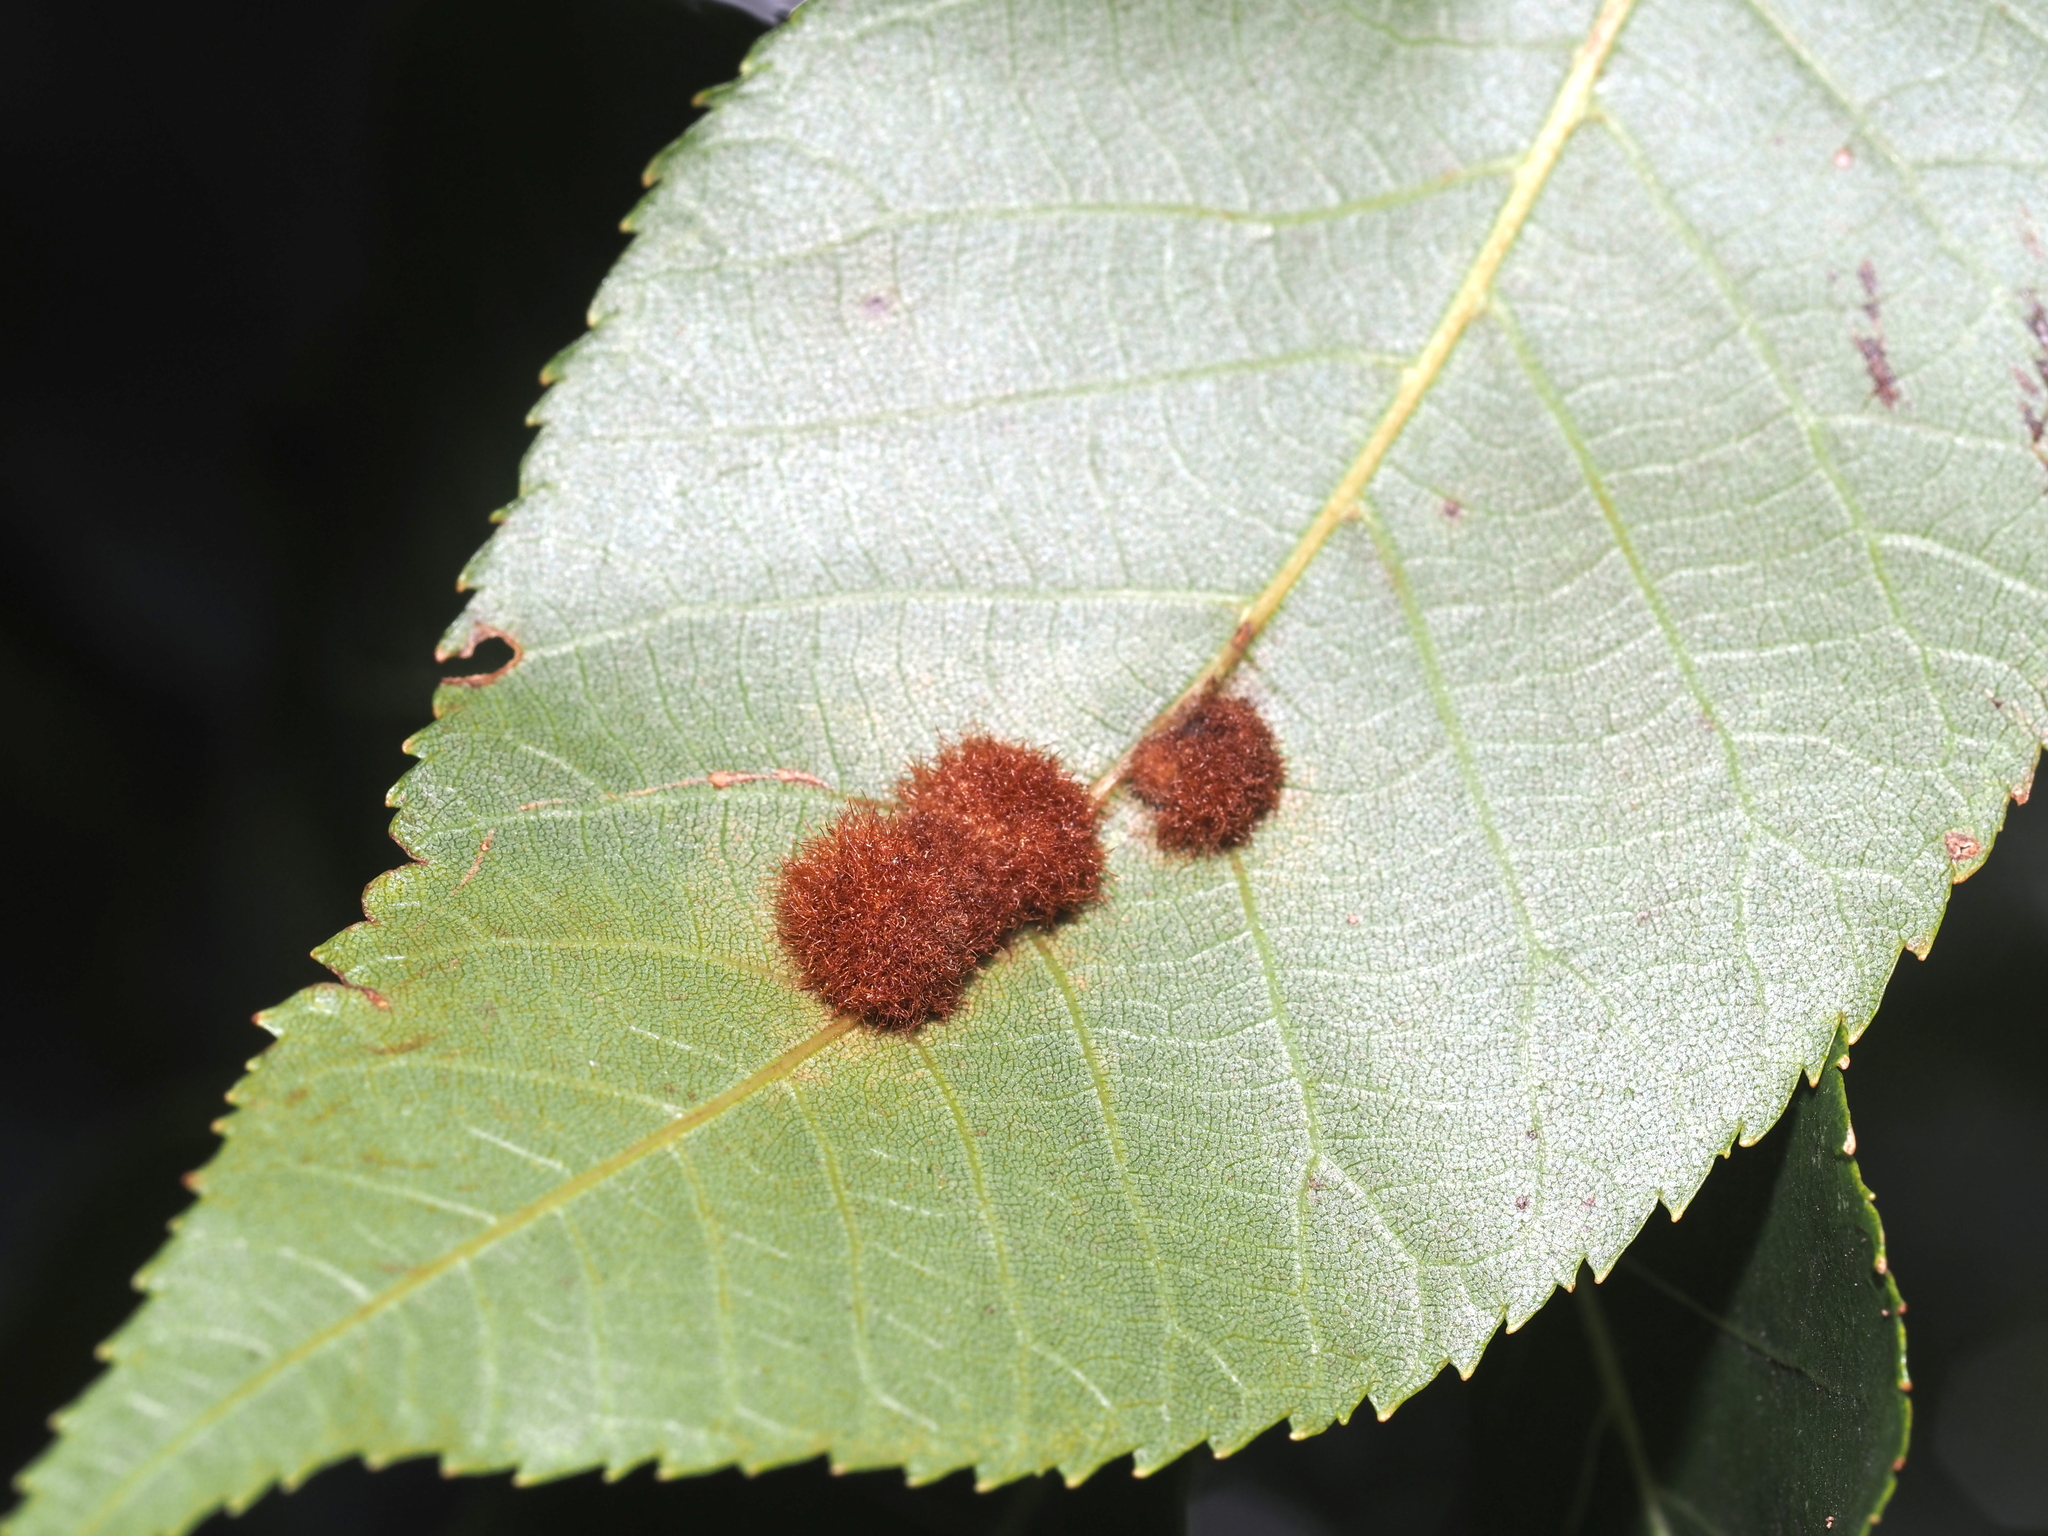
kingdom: Animalia
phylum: Arthropoda
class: Insecta
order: Diptera
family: Cecidomyiidae
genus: Caryomyia
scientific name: Caryomyia aggregata
